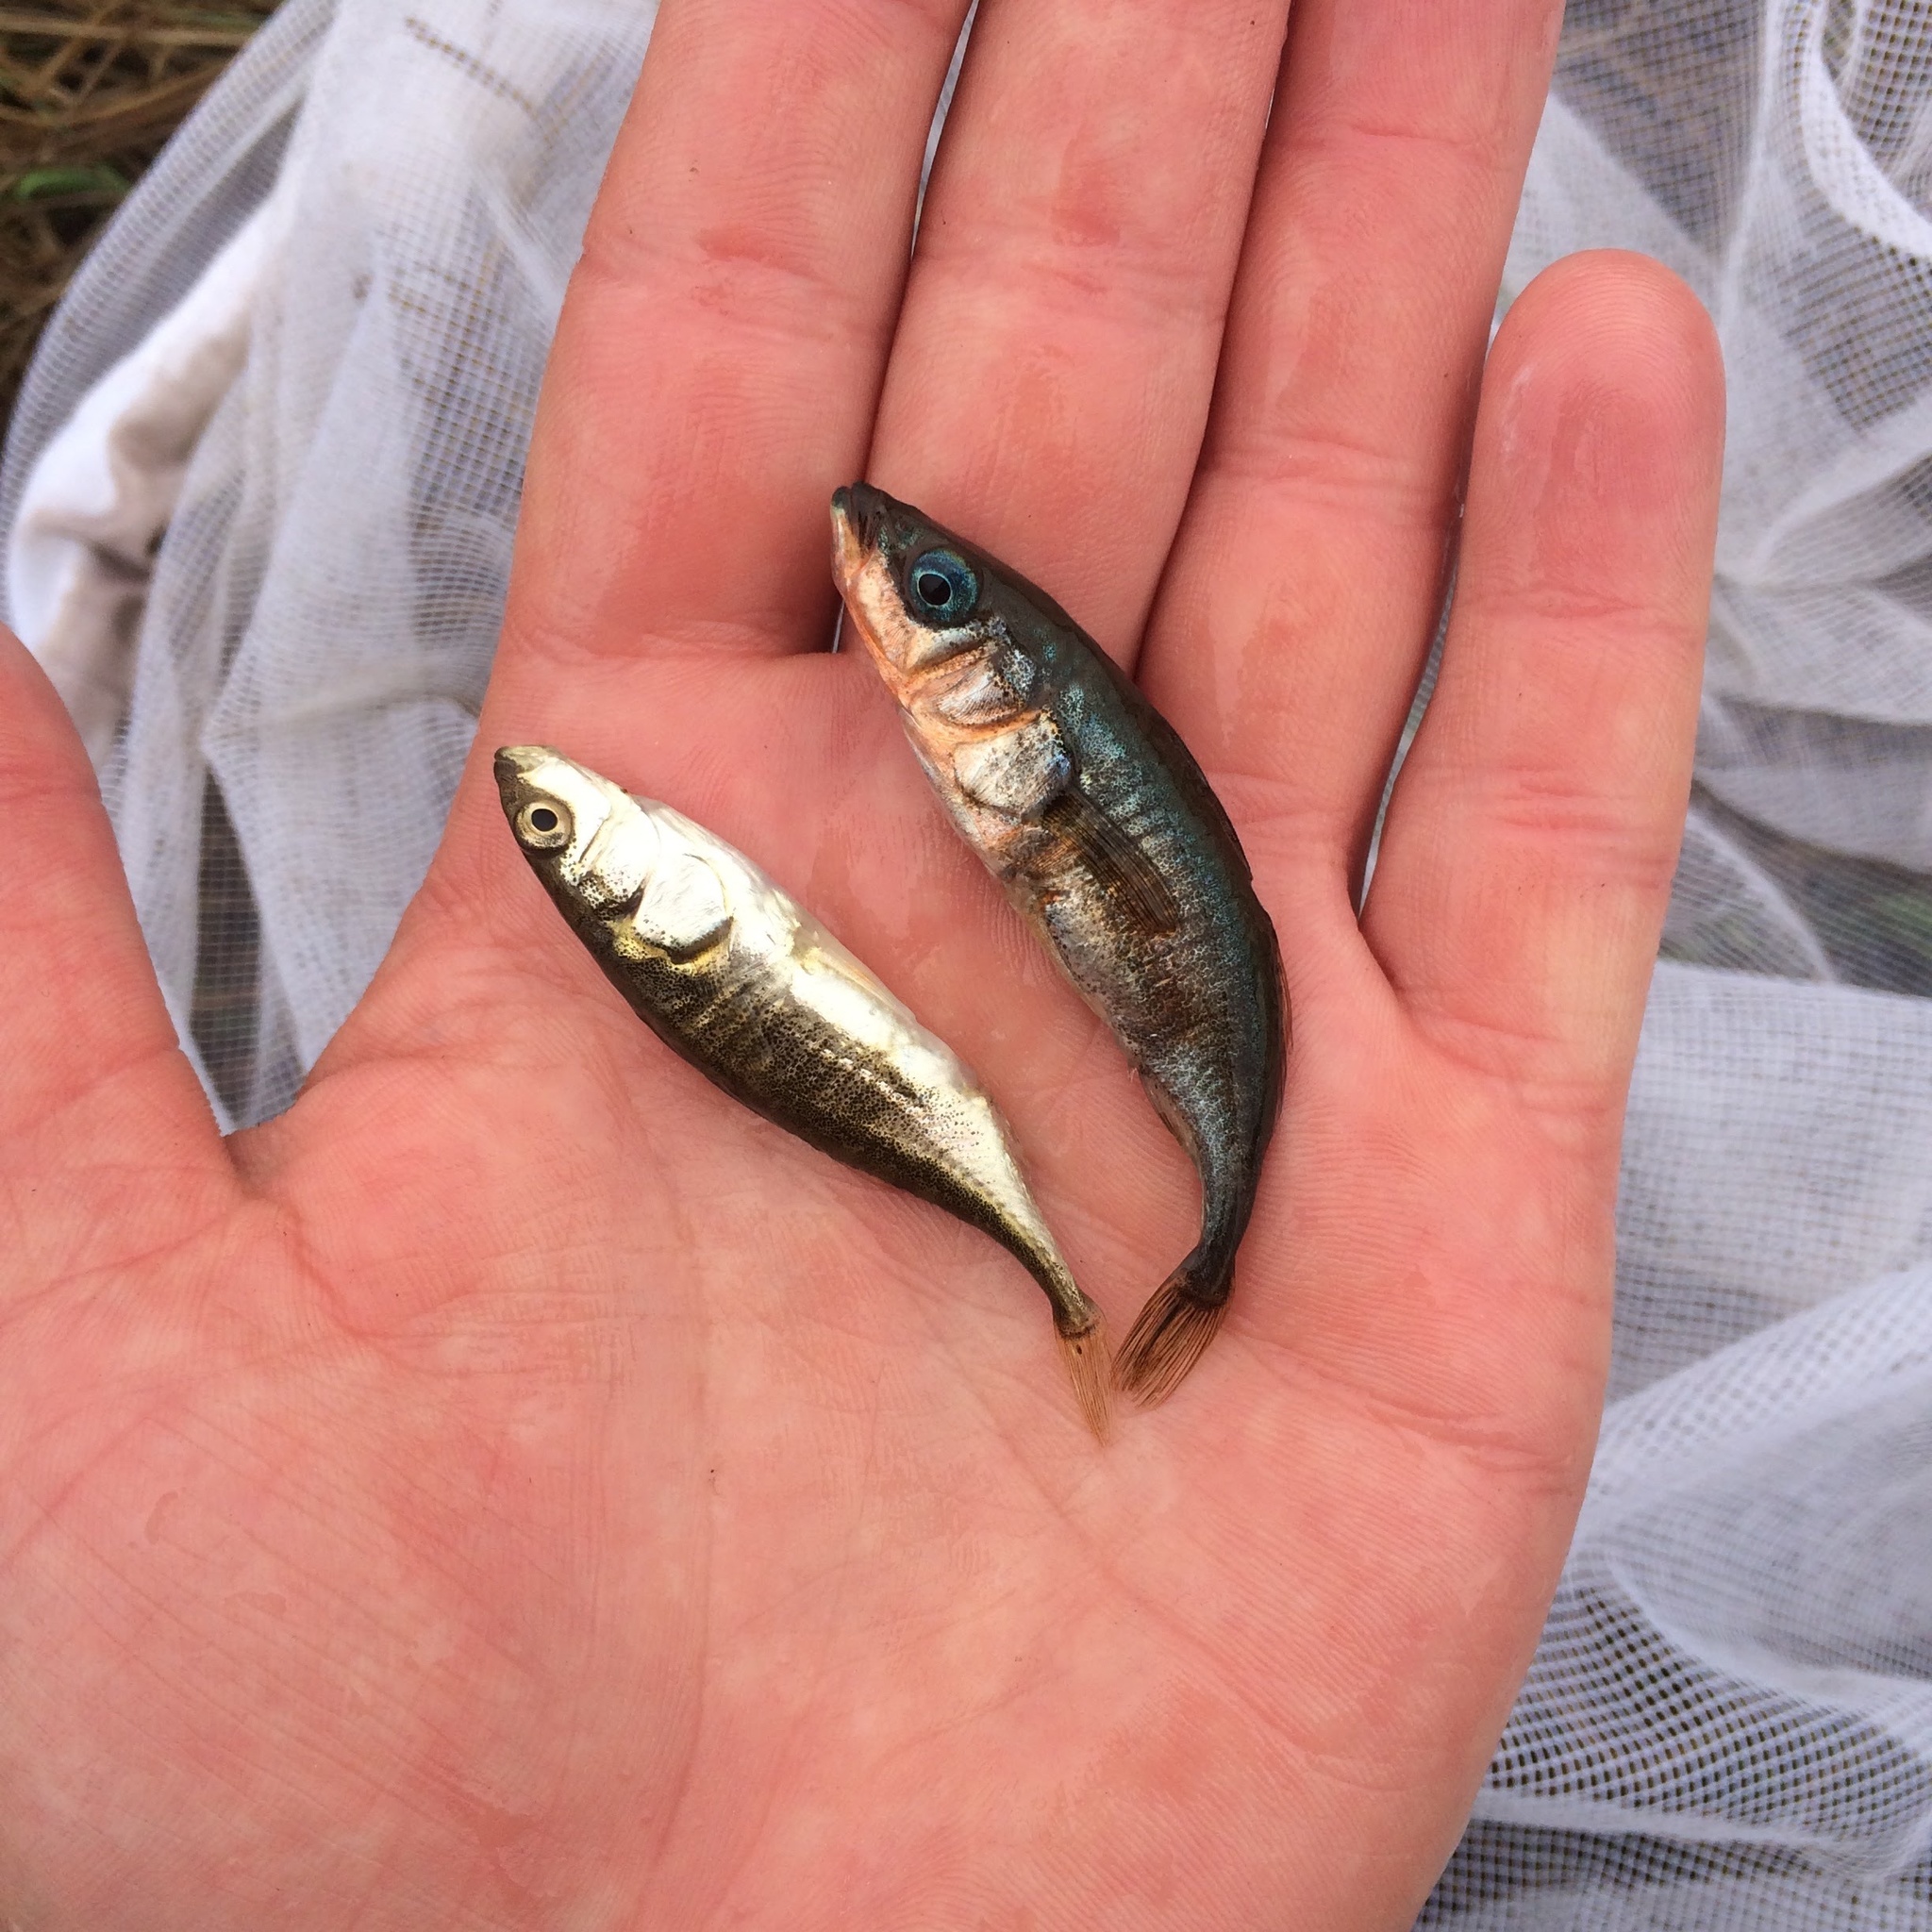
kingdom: Animalia
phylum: Chordata
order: Gasterosteiformes
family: Gasterosteidae
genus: Gasterosteus
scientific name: Gasterosteus aculeatus
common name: Three-spined stickleback
